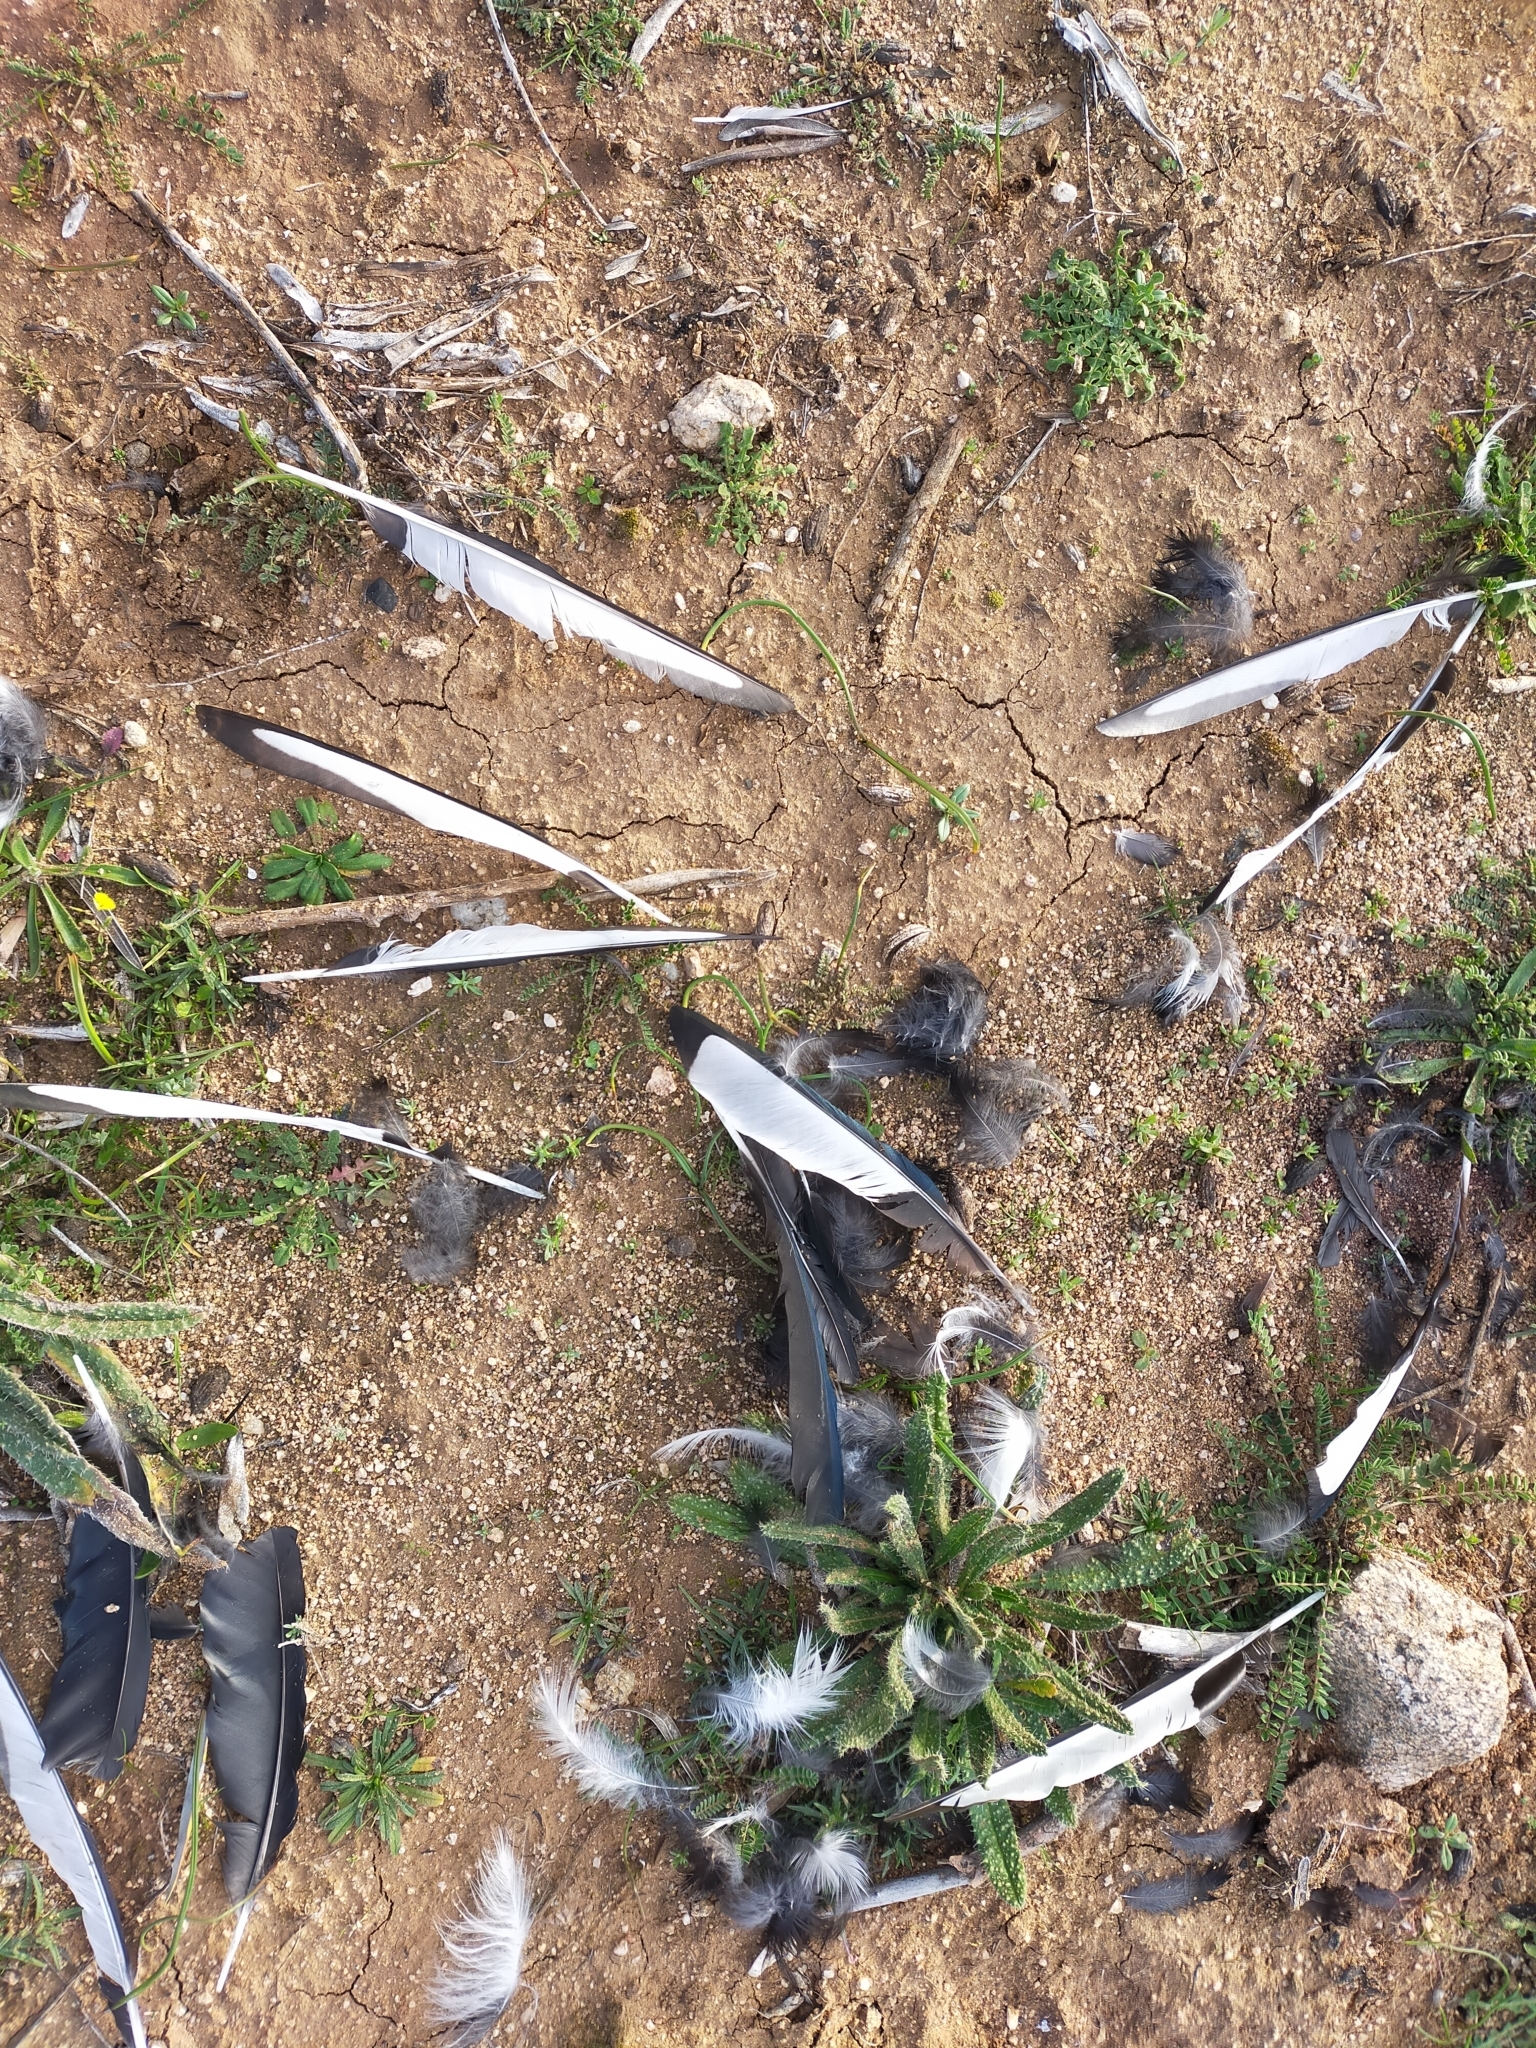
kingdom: Animalia
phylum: Chordata
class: Aves
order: Passeriformes
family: Corvidae
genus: Pica
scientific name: Pica pica
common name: Eurasian magpie
